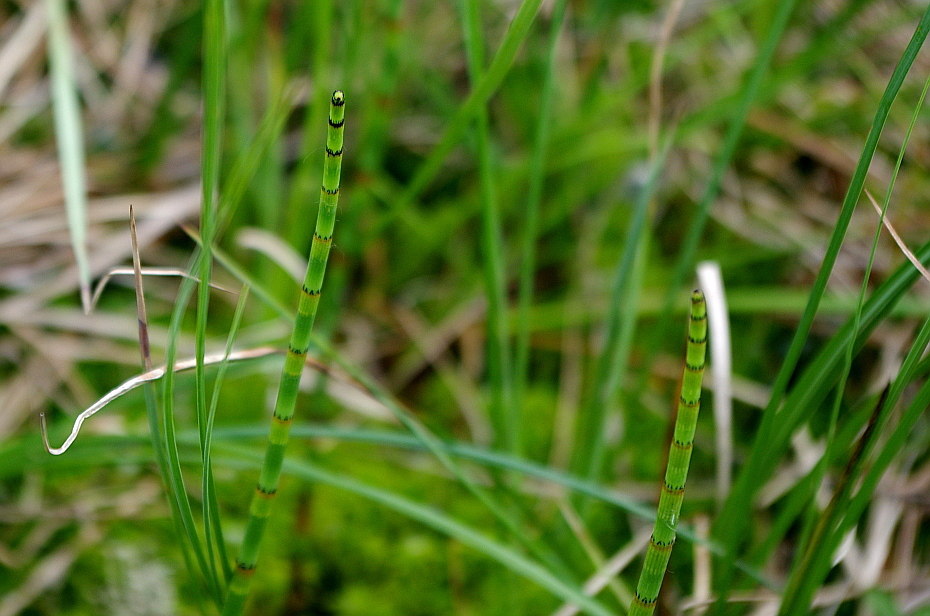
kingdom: Plantae
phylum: Tracheophyta
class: Polypodiopsida
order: Equisetales
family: Equisetaceae
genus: Equisetum
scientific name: Equisetum fluviatile
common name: Water horsetail
